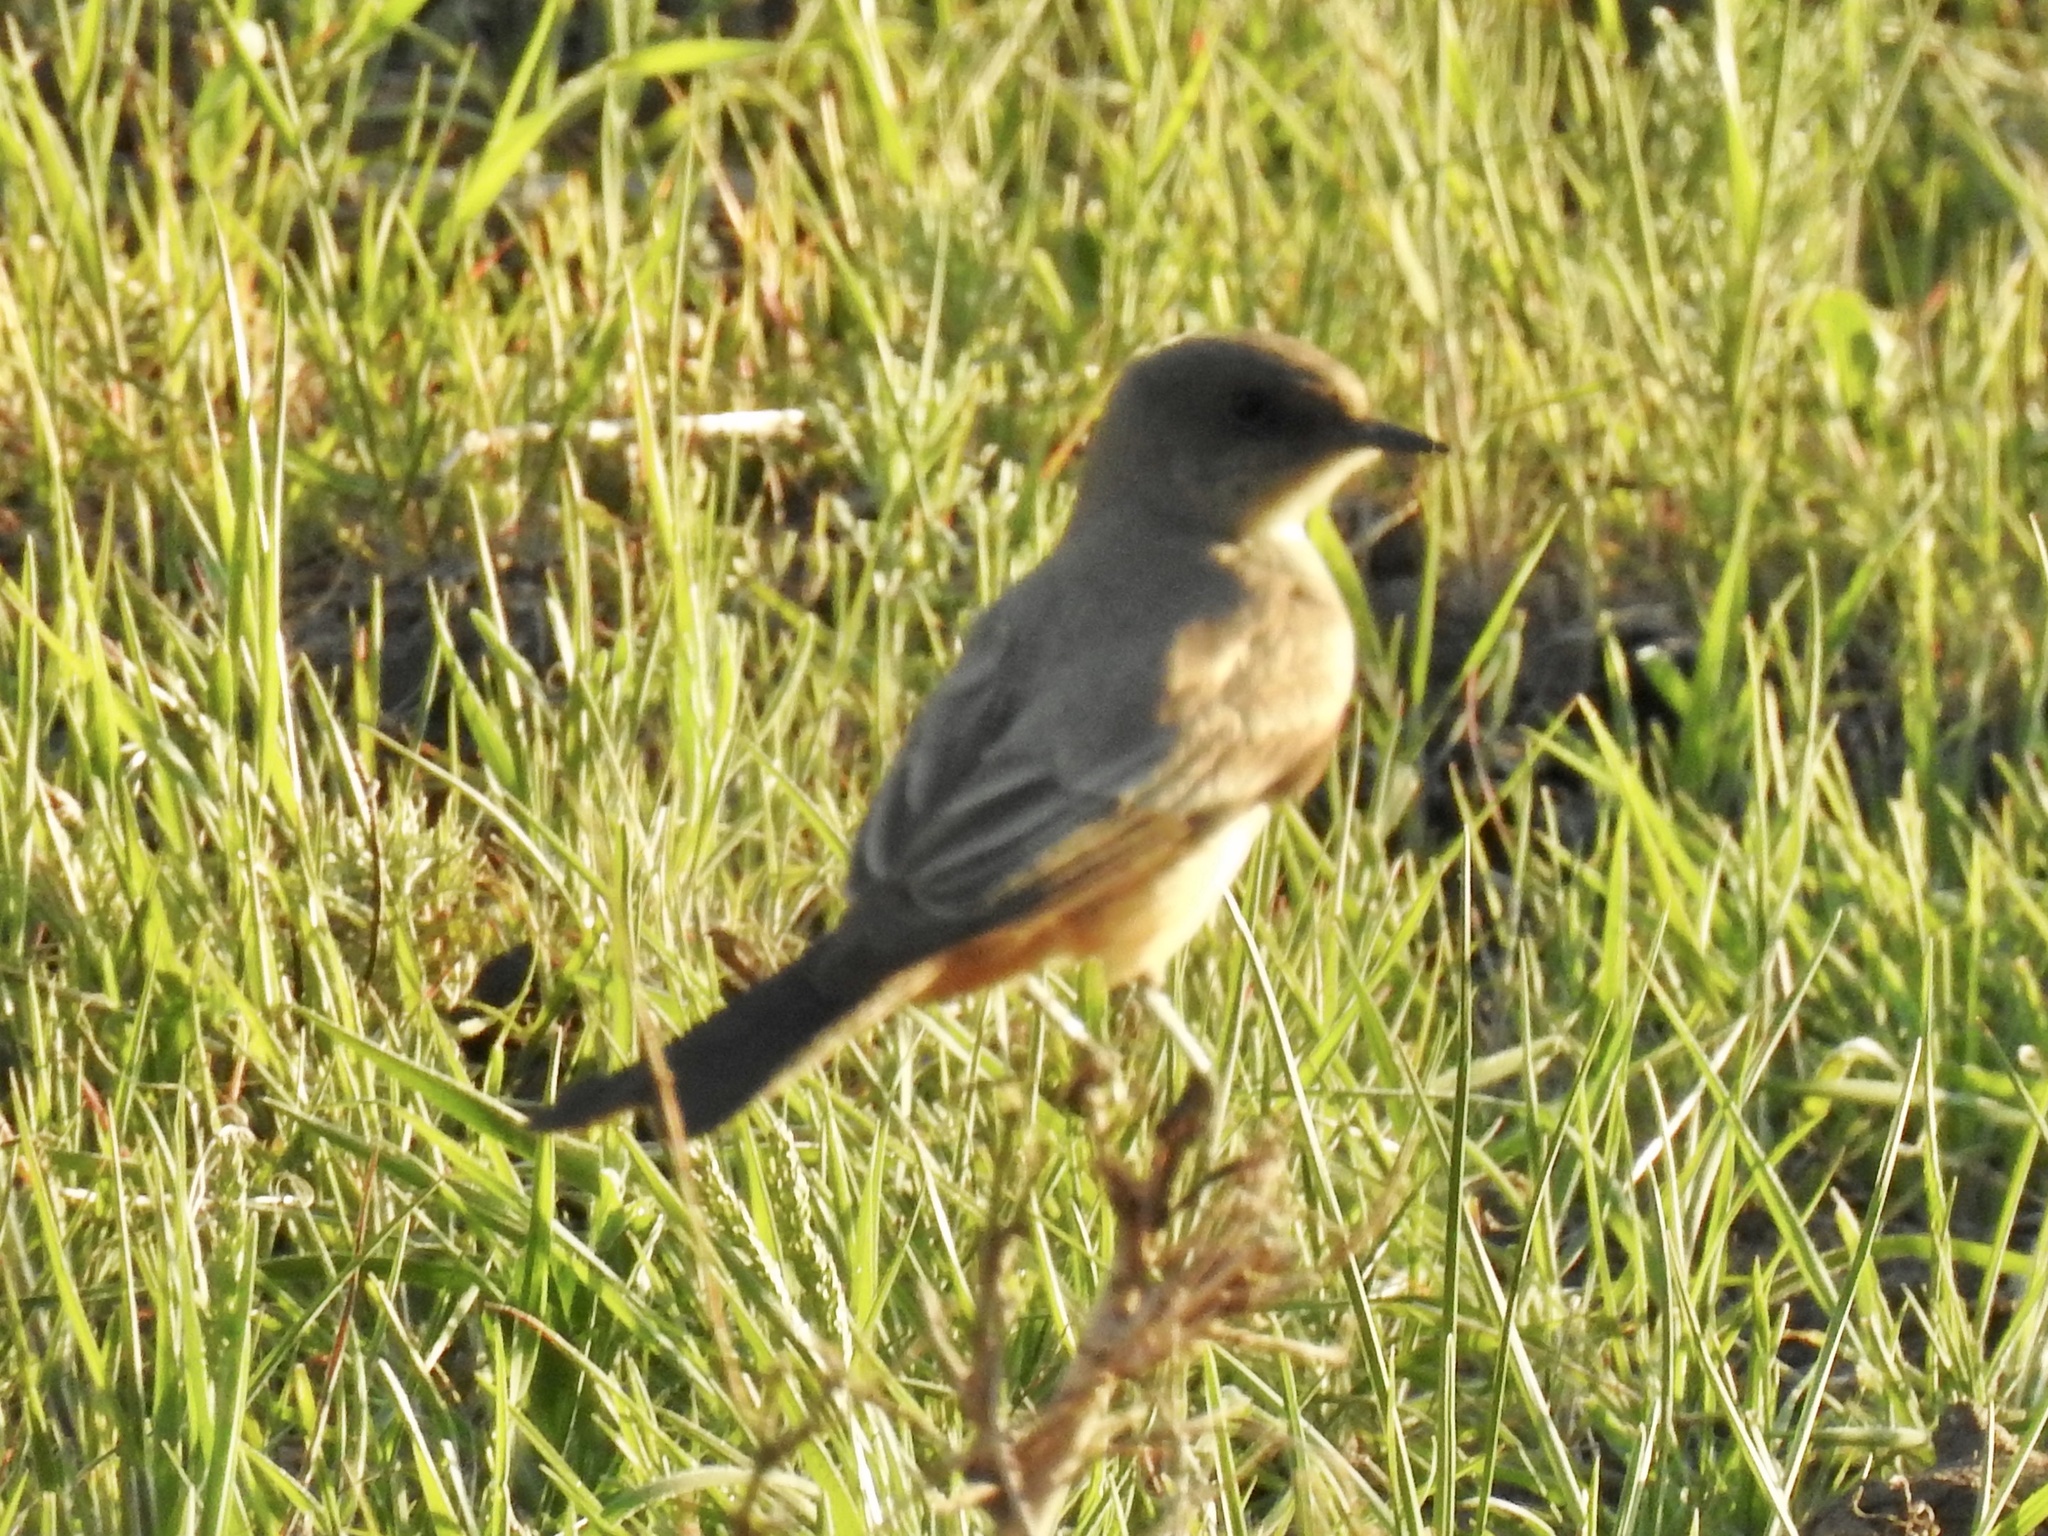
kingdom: Animalia
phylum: Chordata
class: Aves
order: Passeriformes
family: Tyrannidae
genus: Sayornis
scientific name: Sayornis saya
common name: Say's phoebe
